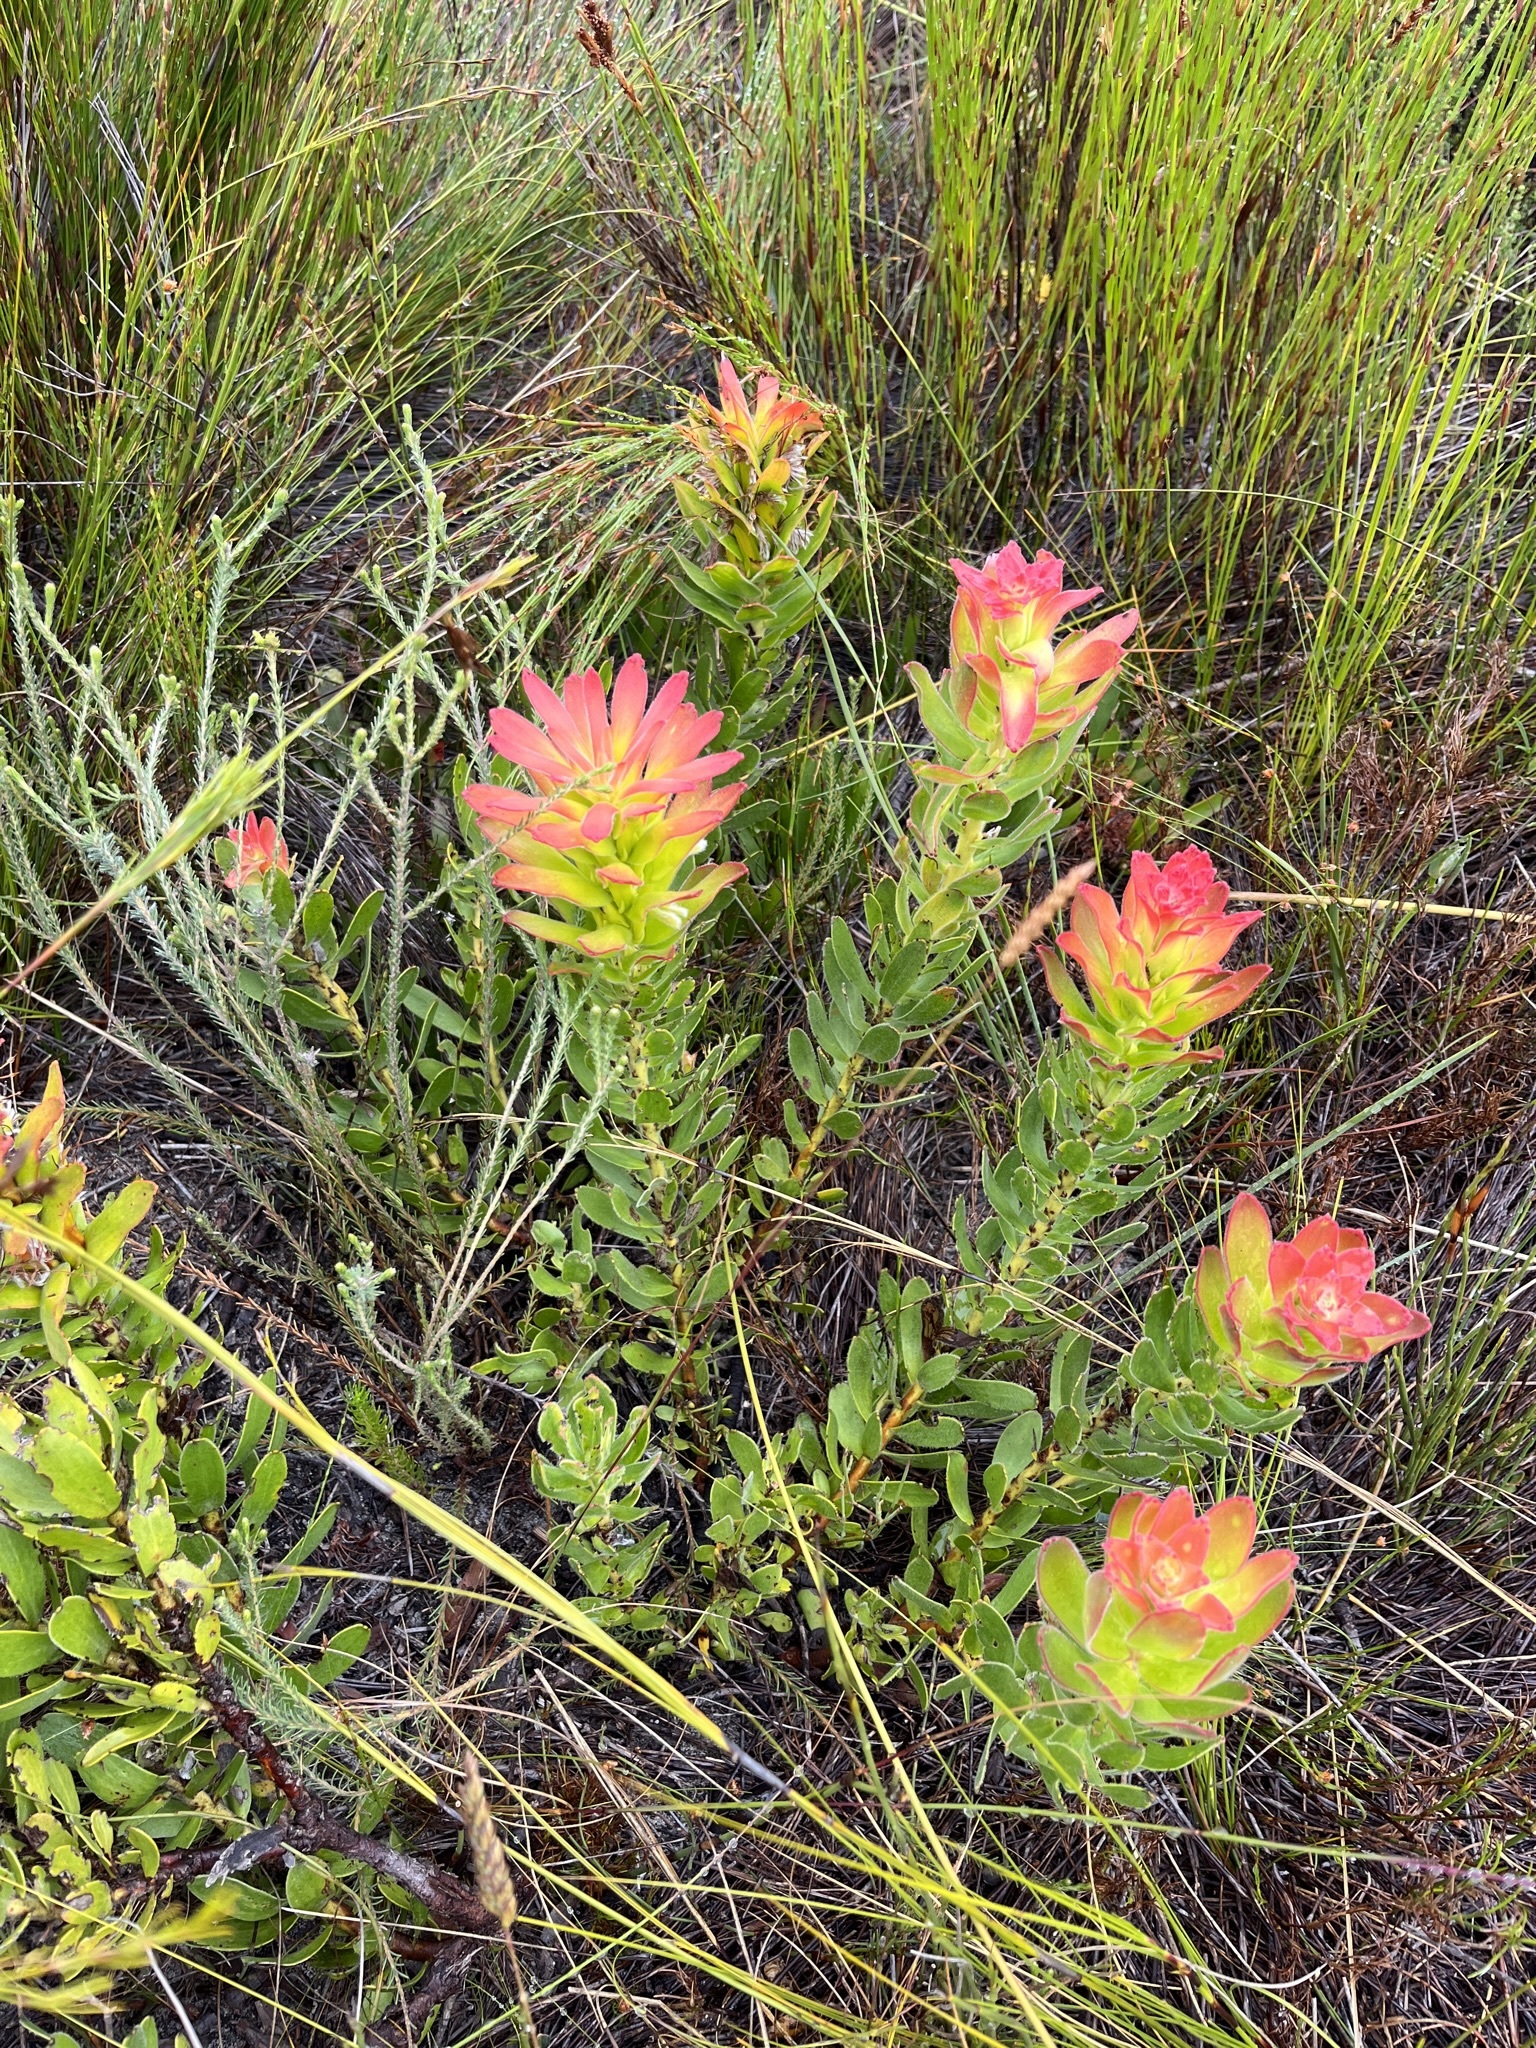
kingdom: Plantae
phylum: Tracheophyta
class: Magnoliopsida
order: Proteales
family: Proteaceae
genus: Mimetes
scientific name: Mimetes cucullatus
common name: Common pagoda
